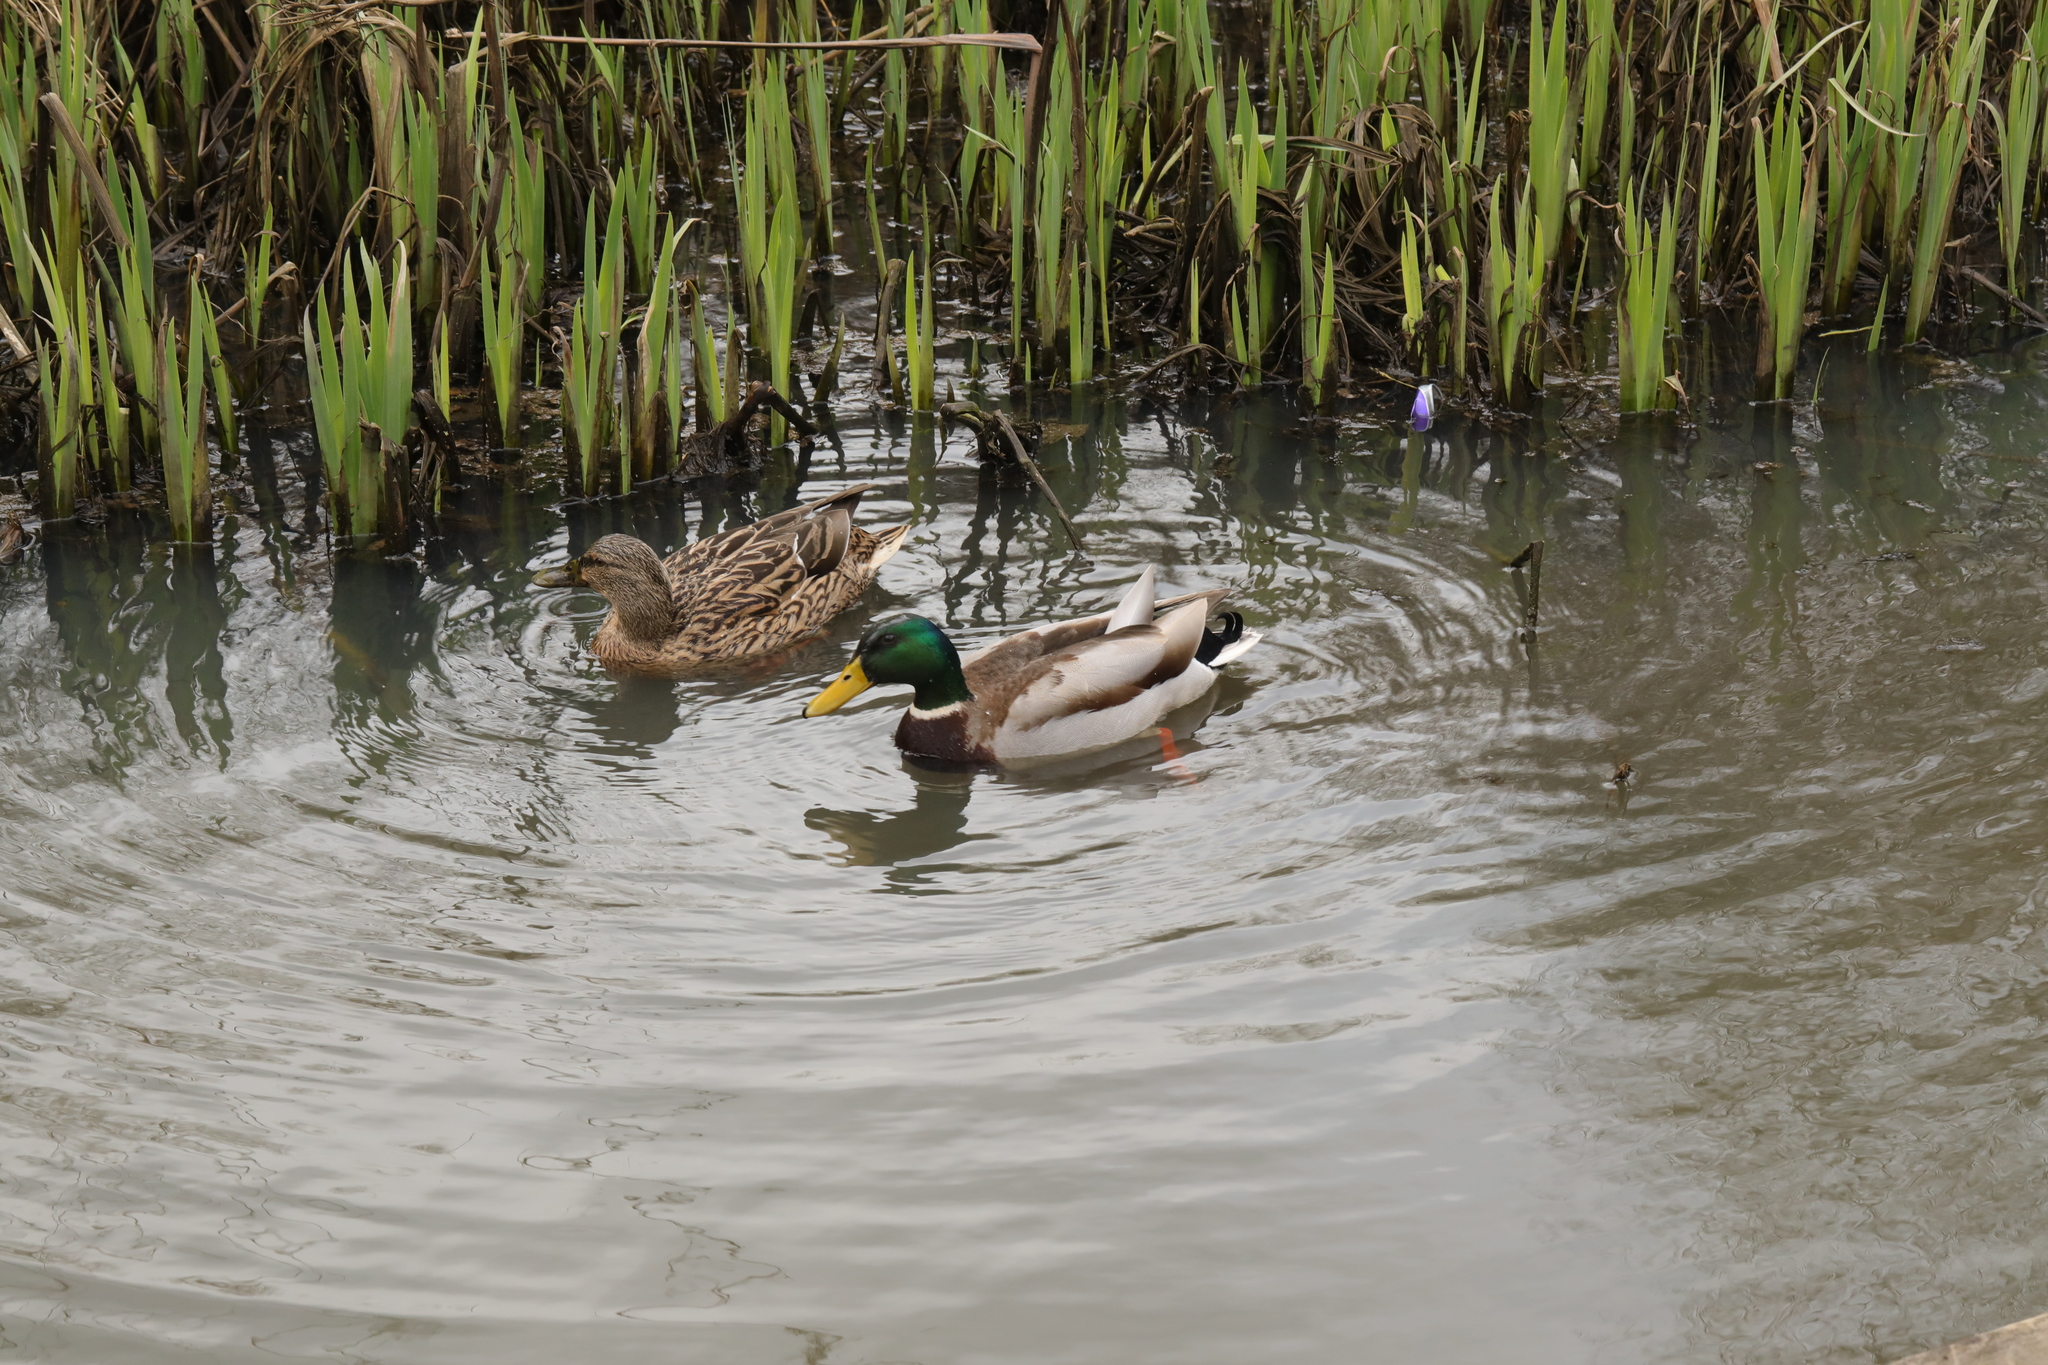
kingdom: Animalia
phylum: Chordata
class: Aves
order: Anseriformes
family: Anatidae
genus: Anas
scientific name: Anas platyrhynchos
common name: Mallard
